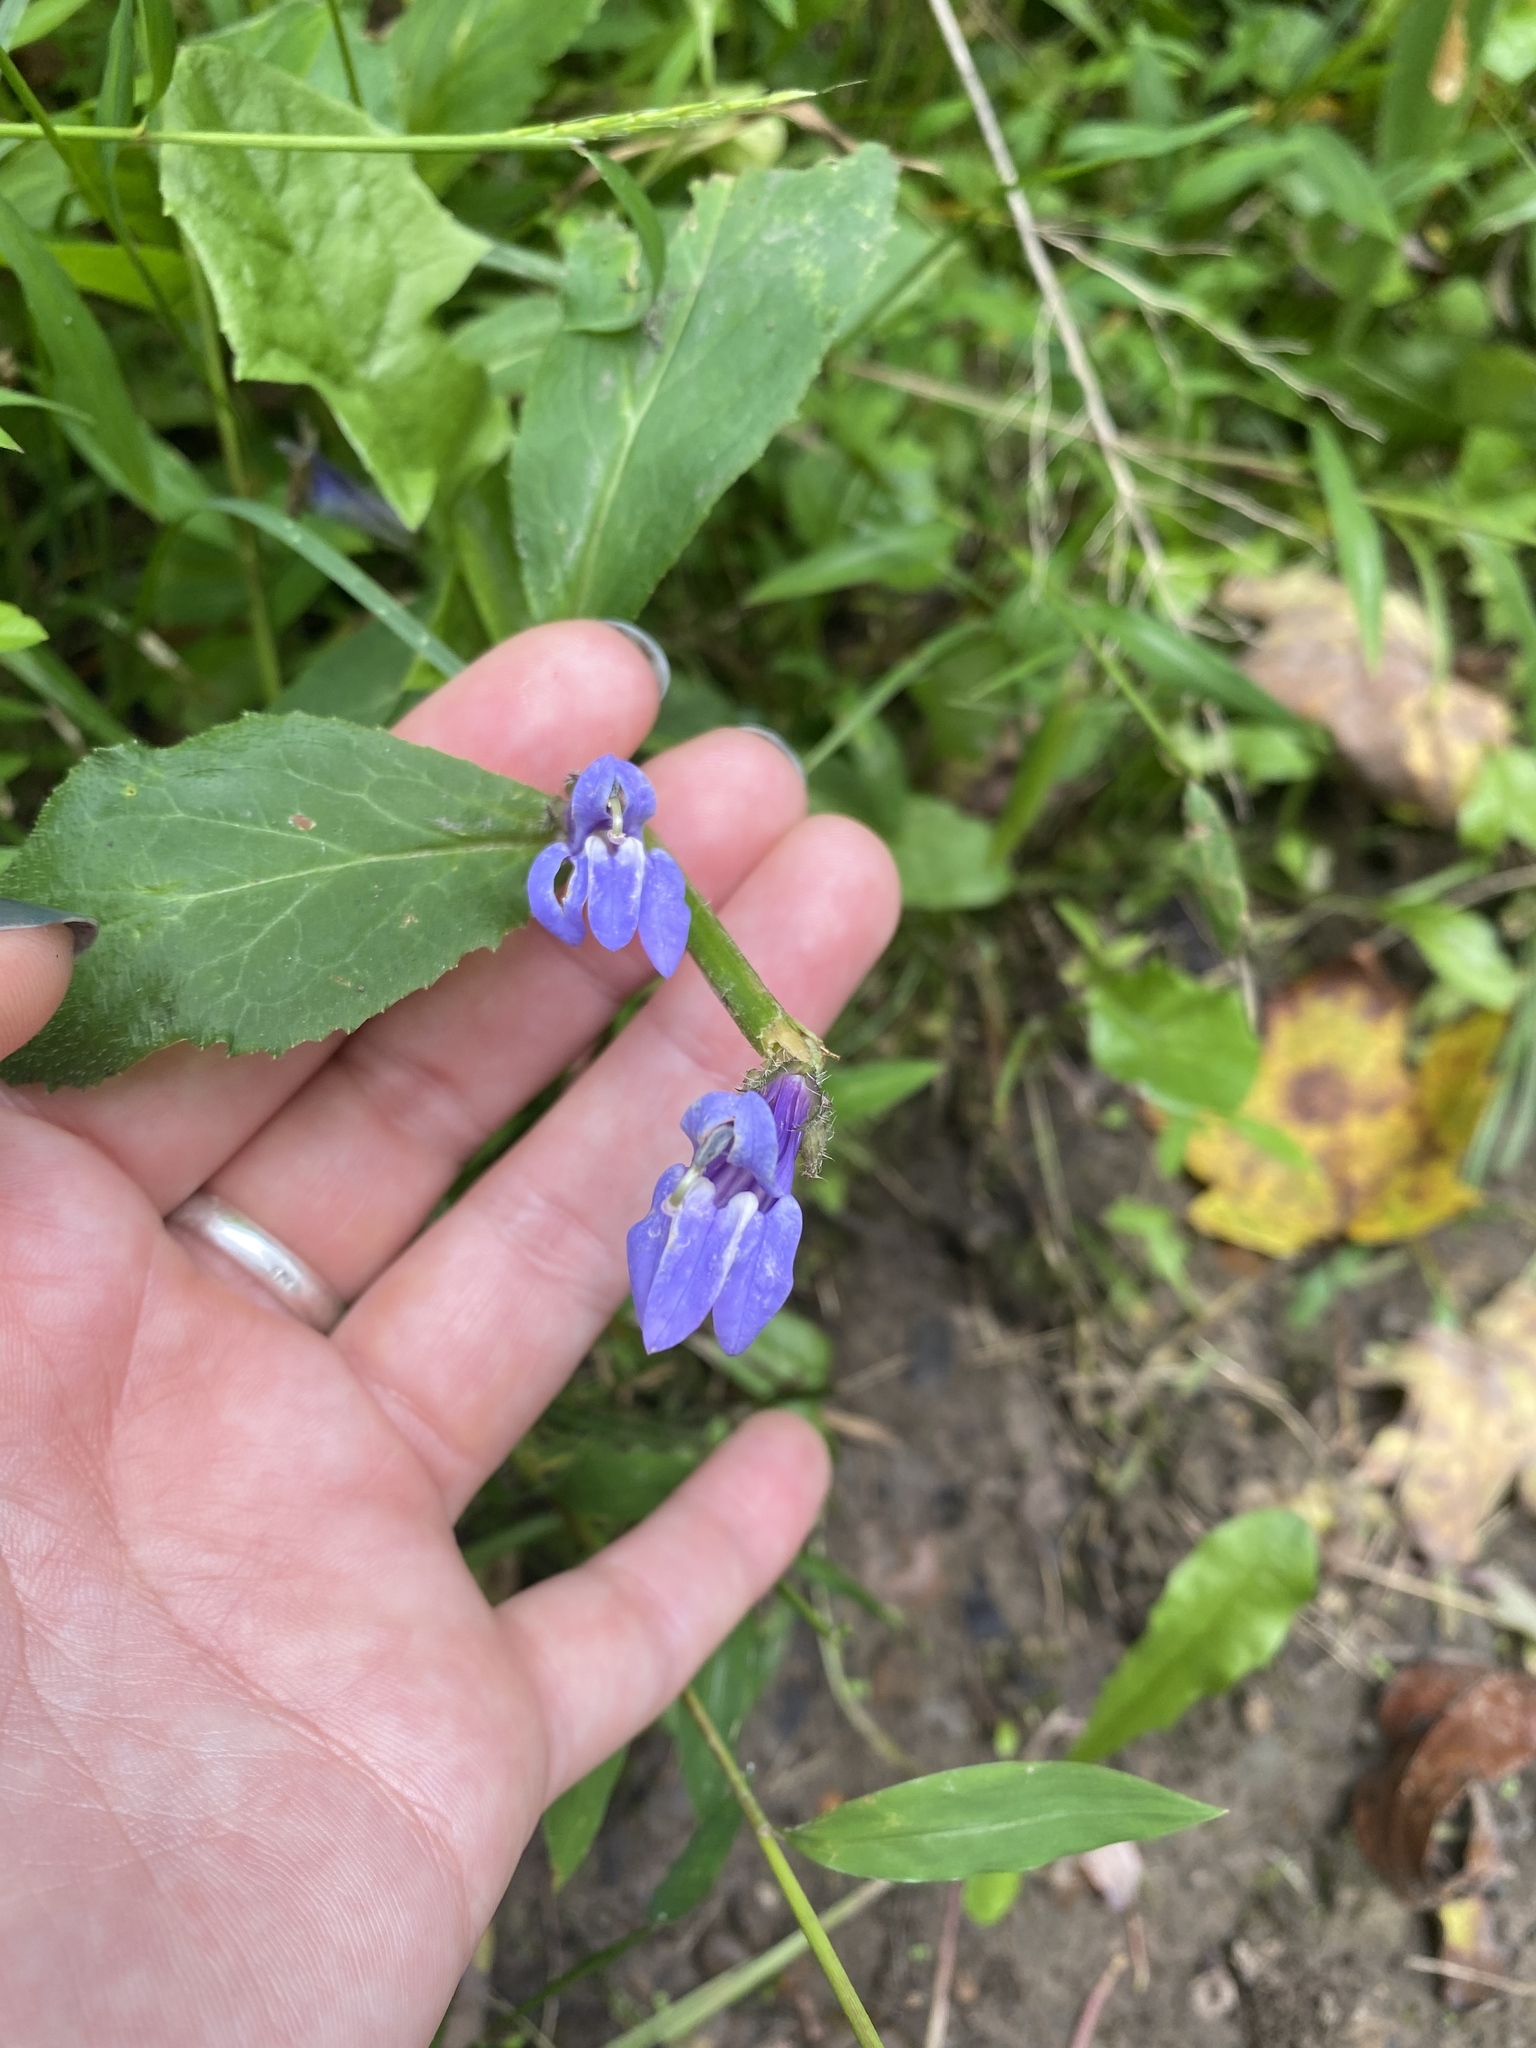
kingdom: Plantae
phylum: Tracheophyta
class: Magnoliopsida
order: Asterales
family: Campanulaceae
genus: Lobelia
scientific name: Lobelia siphilitica
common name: Great lobelia
